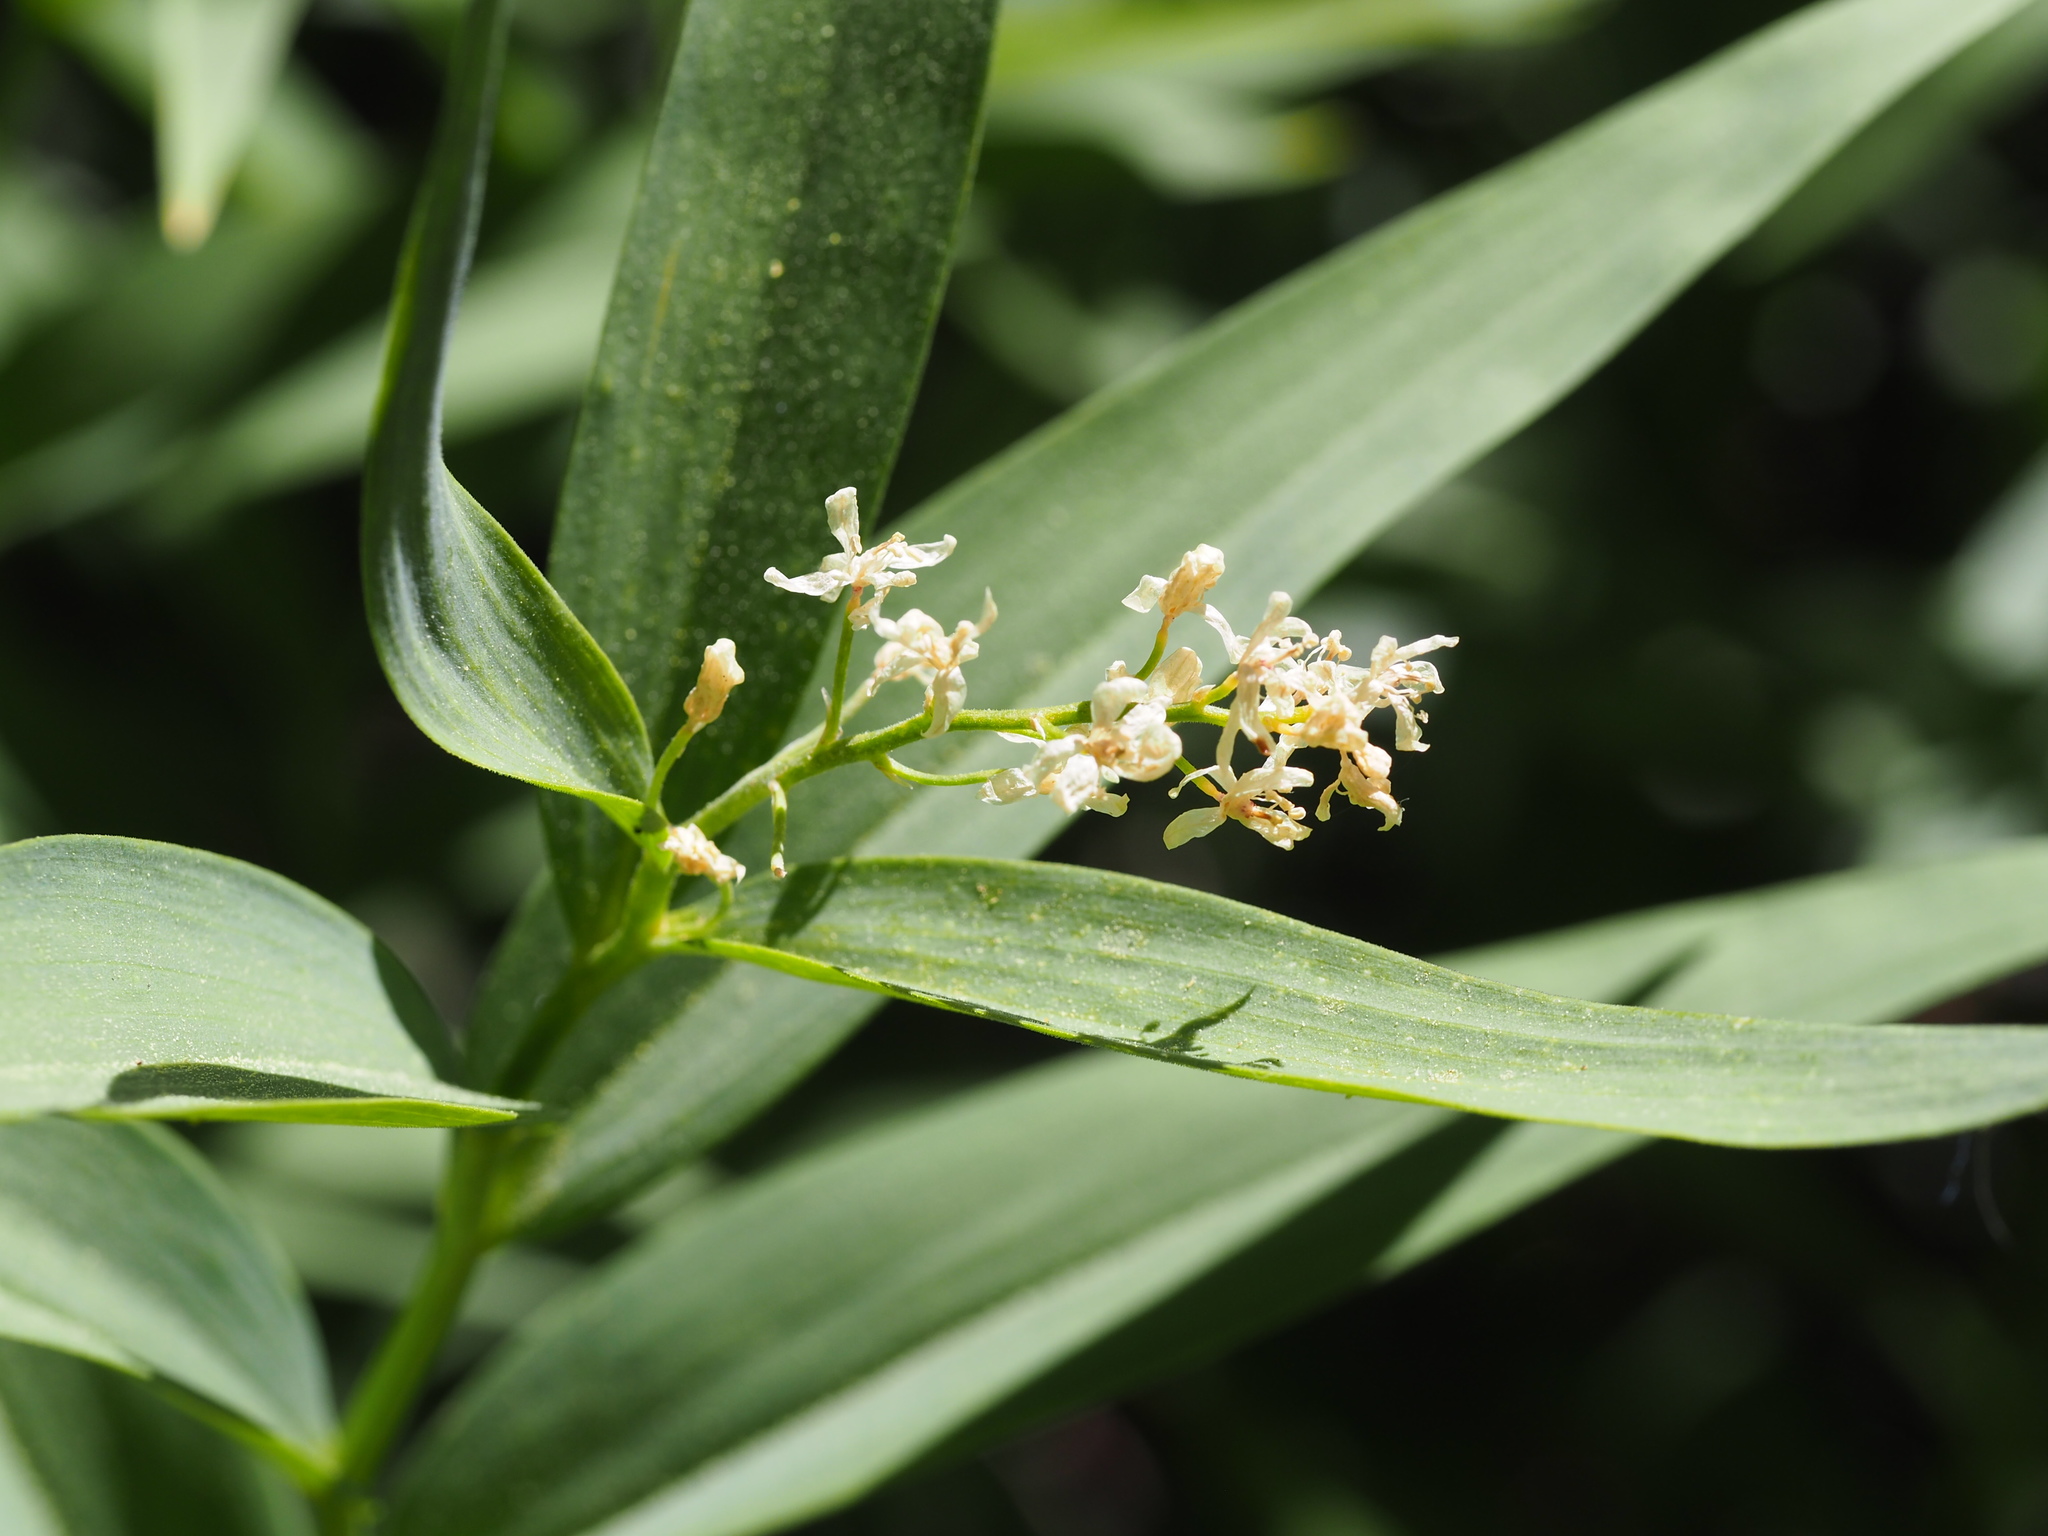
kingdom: Plantae
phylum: Tracheophyta
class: Liliopsida
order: Asparagales
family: Asparagaceae
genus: Maianthemum
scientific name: Maianthemum stellatum
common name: Little false solomon's seal
